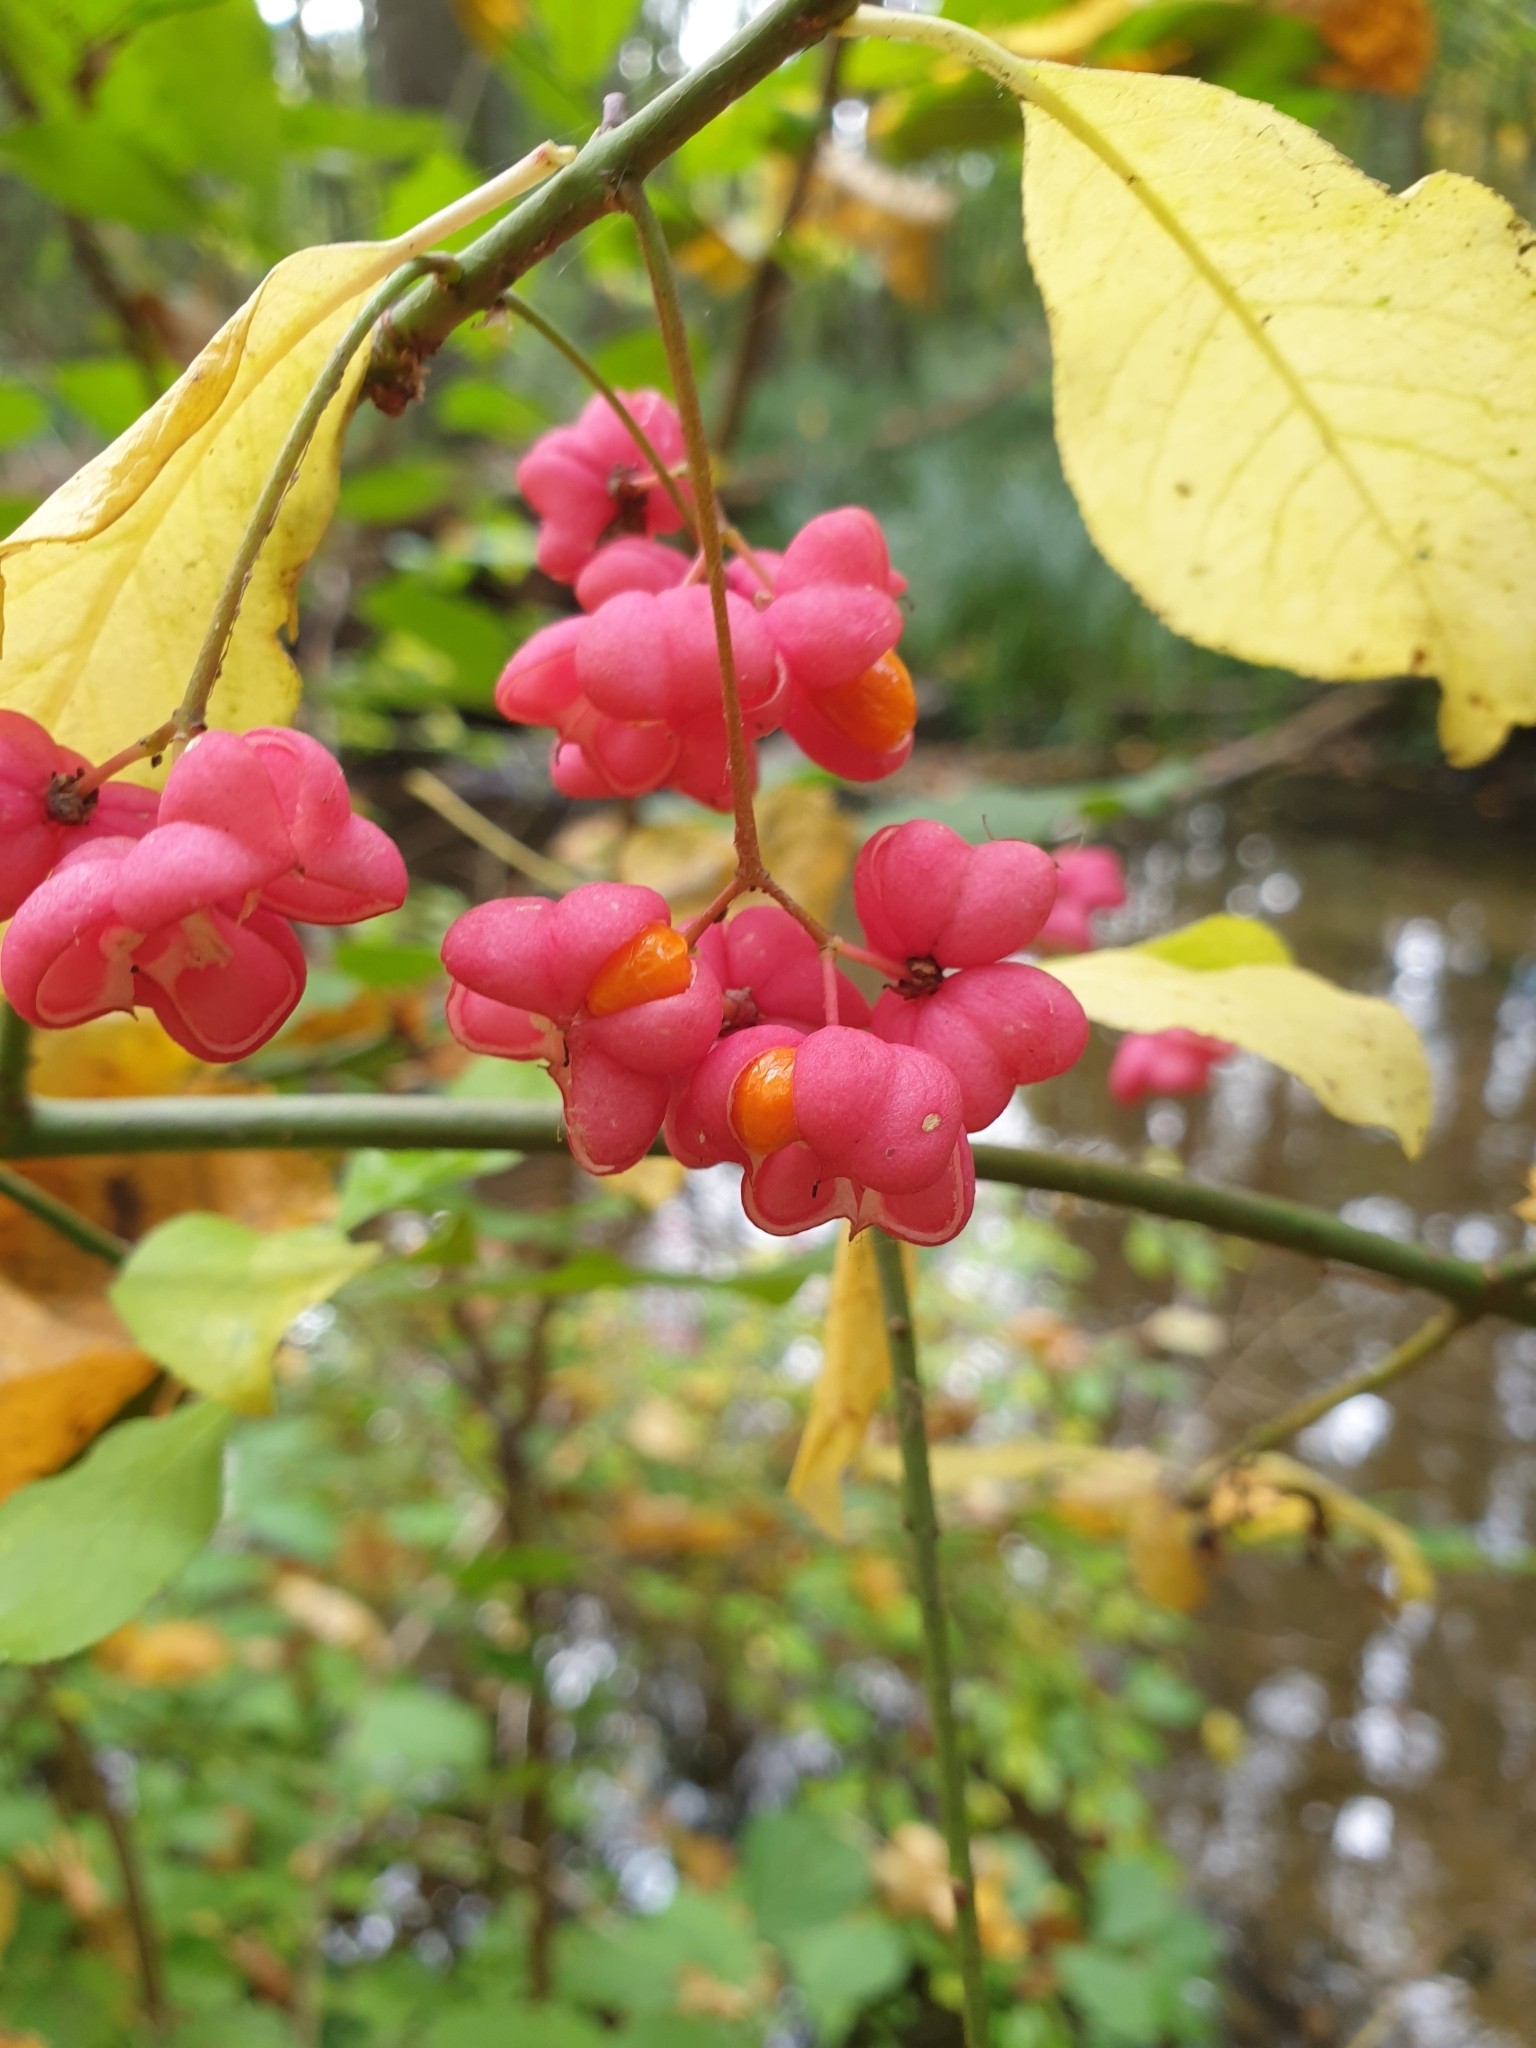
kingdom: Plantae
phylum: Tracheophyta
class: Magnoliopsida
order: Celastrales
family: Celastraceae
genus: Euonymus
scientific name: Euonymus europaeus
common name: Spindle
